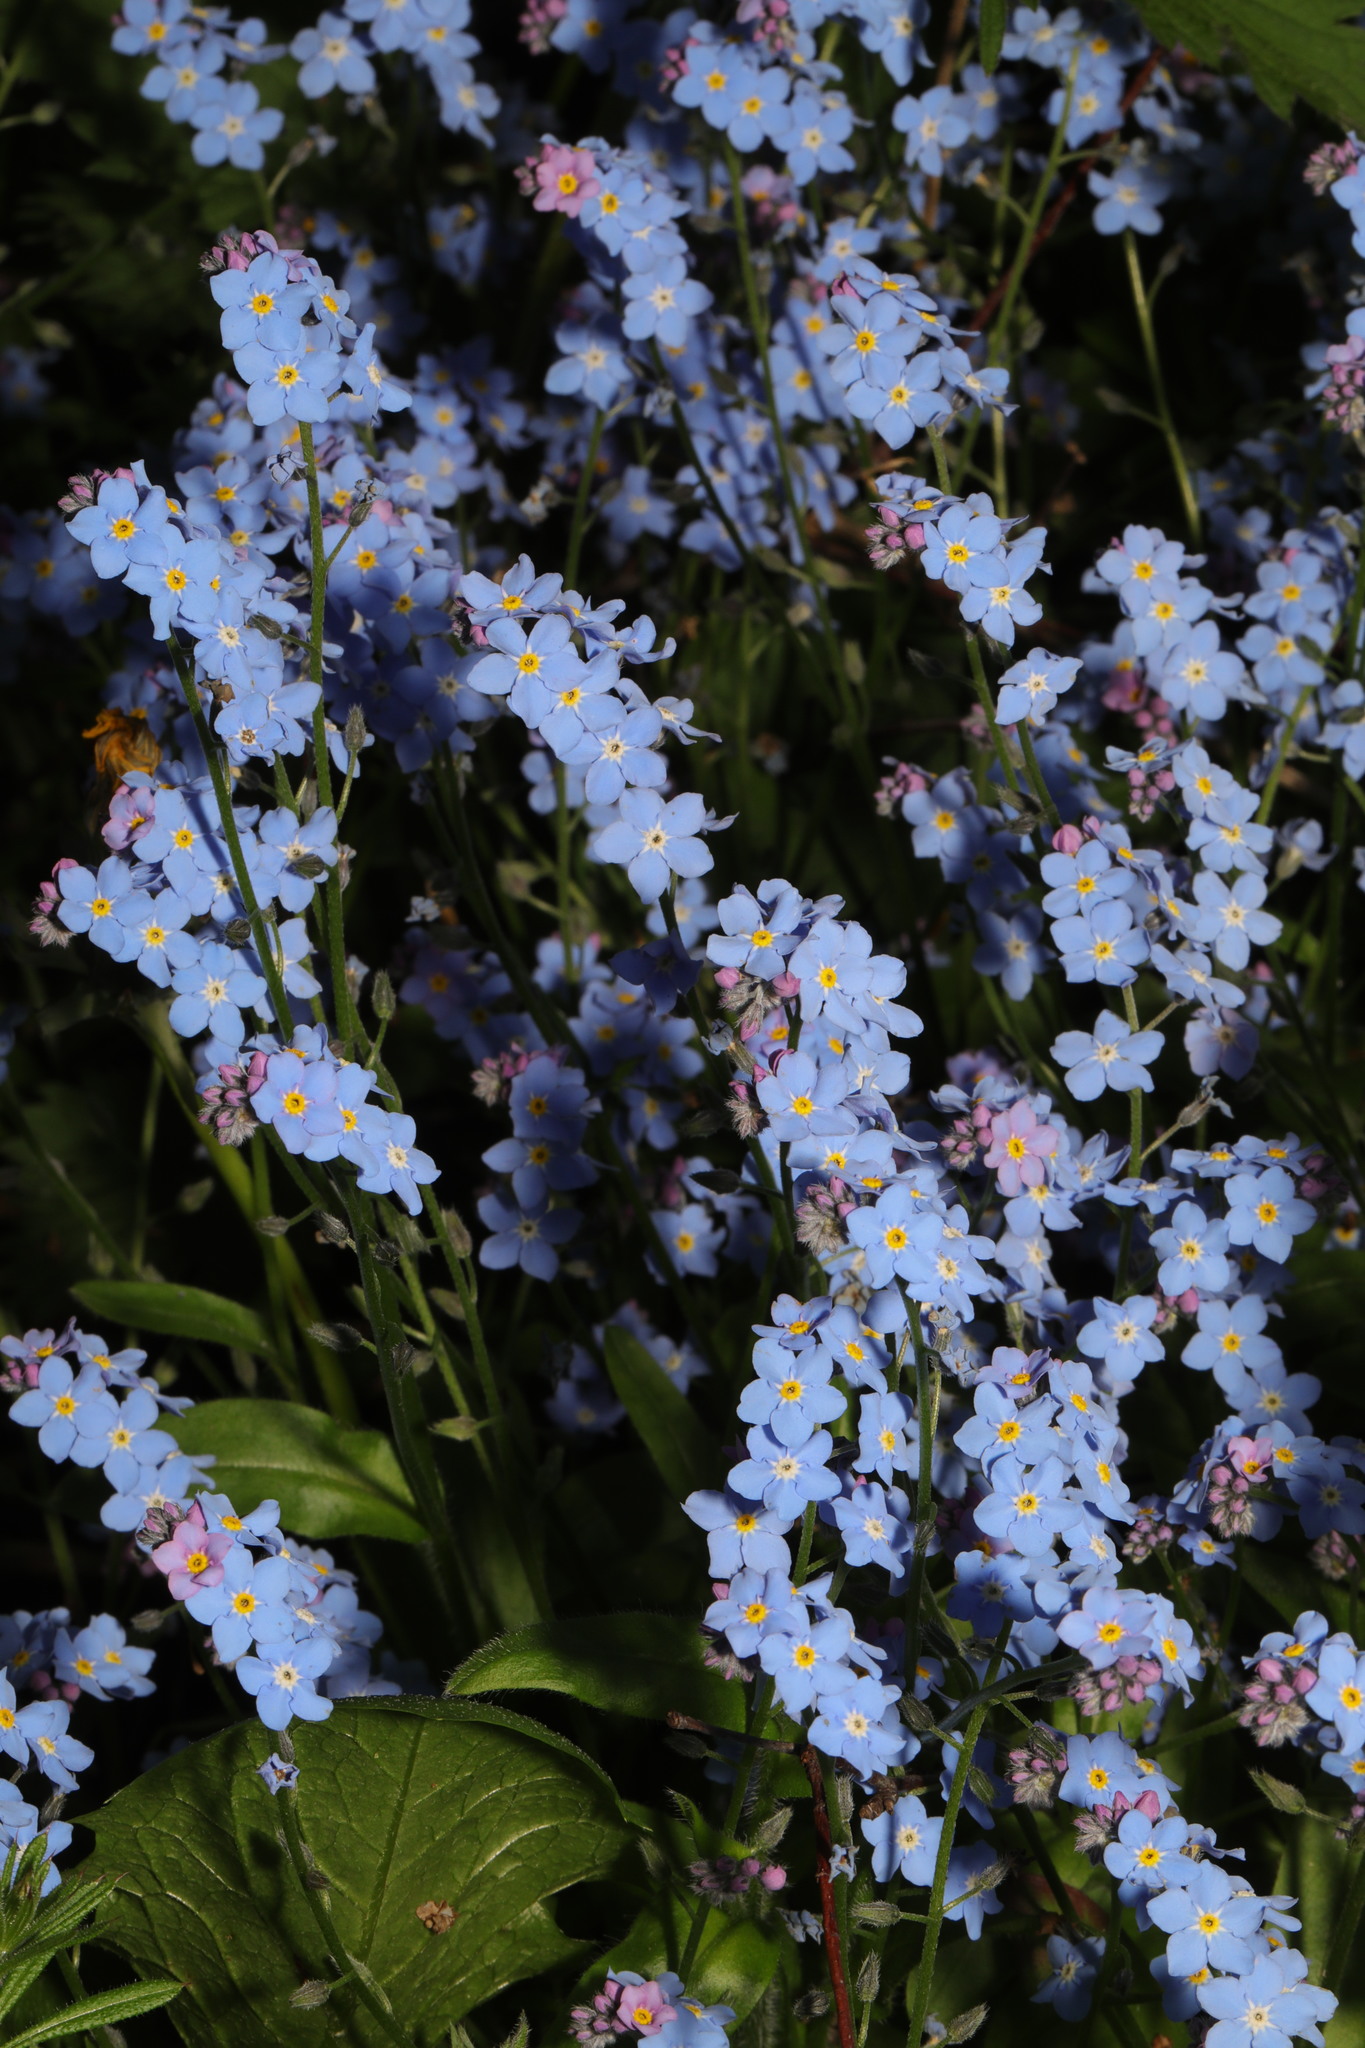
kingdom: Plantae
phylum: Tracheophyta
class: Magnoliopsida
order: Boraginales
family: Boraginaceae
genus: Myosotis
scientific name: Myosotis sylvatica
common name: Wood forget-me-not
